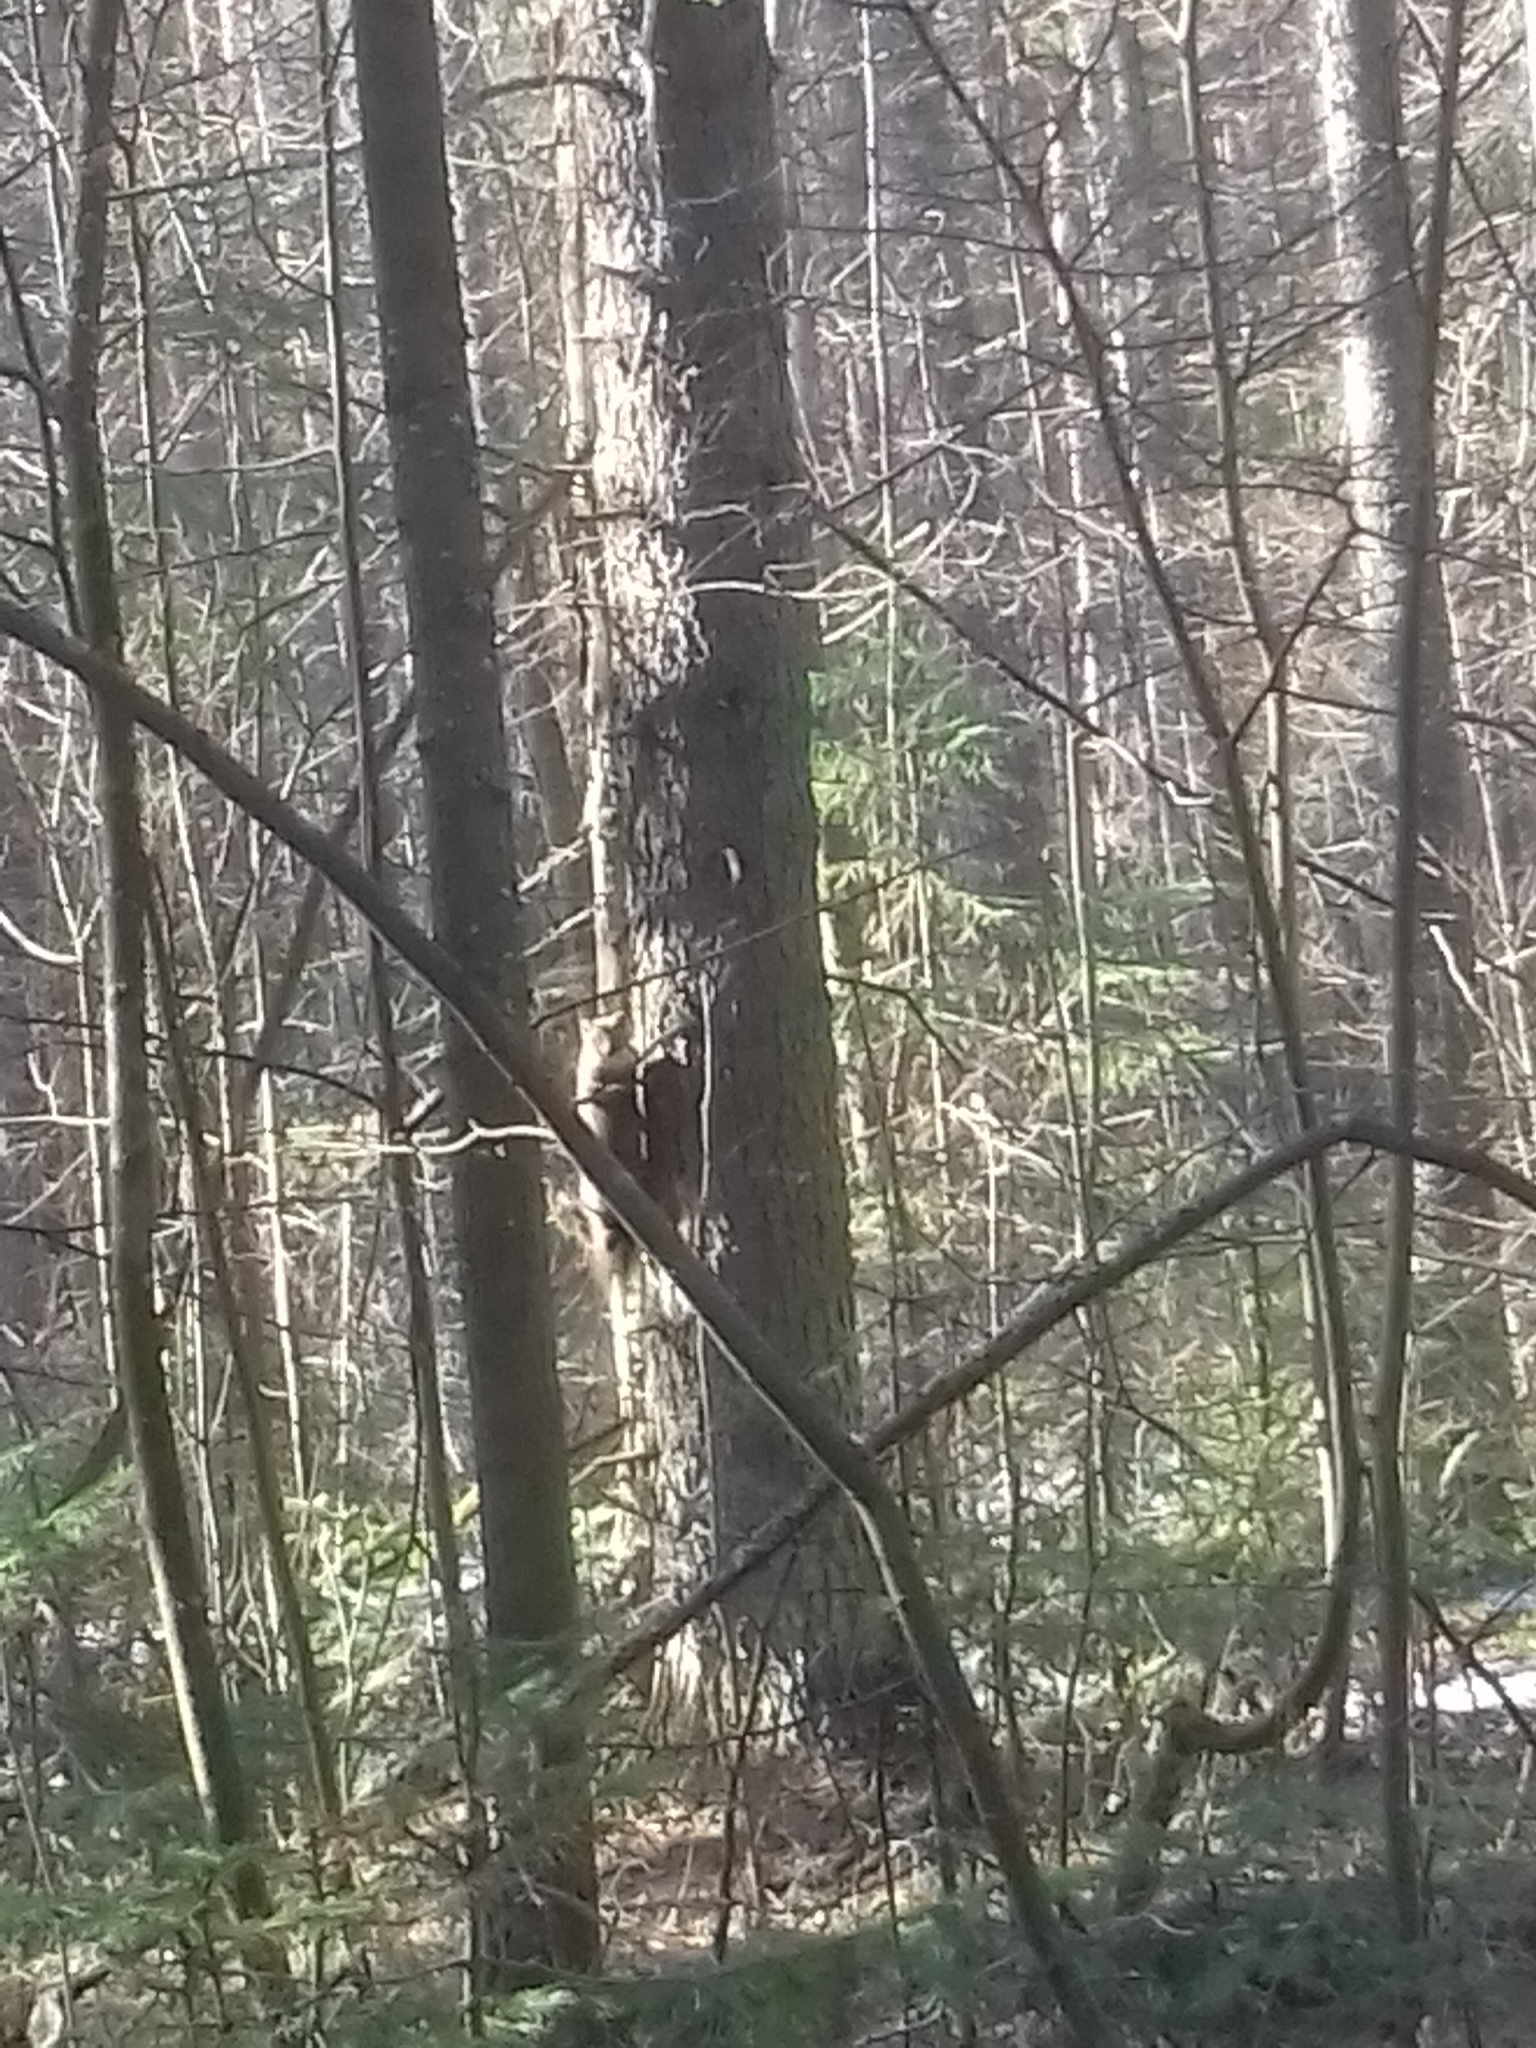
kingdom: Animalia
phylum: Chordata
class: Mammalia
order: Carnivora
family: Mustelidae
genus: Martes
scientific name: Martes martes
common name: European pine marten
